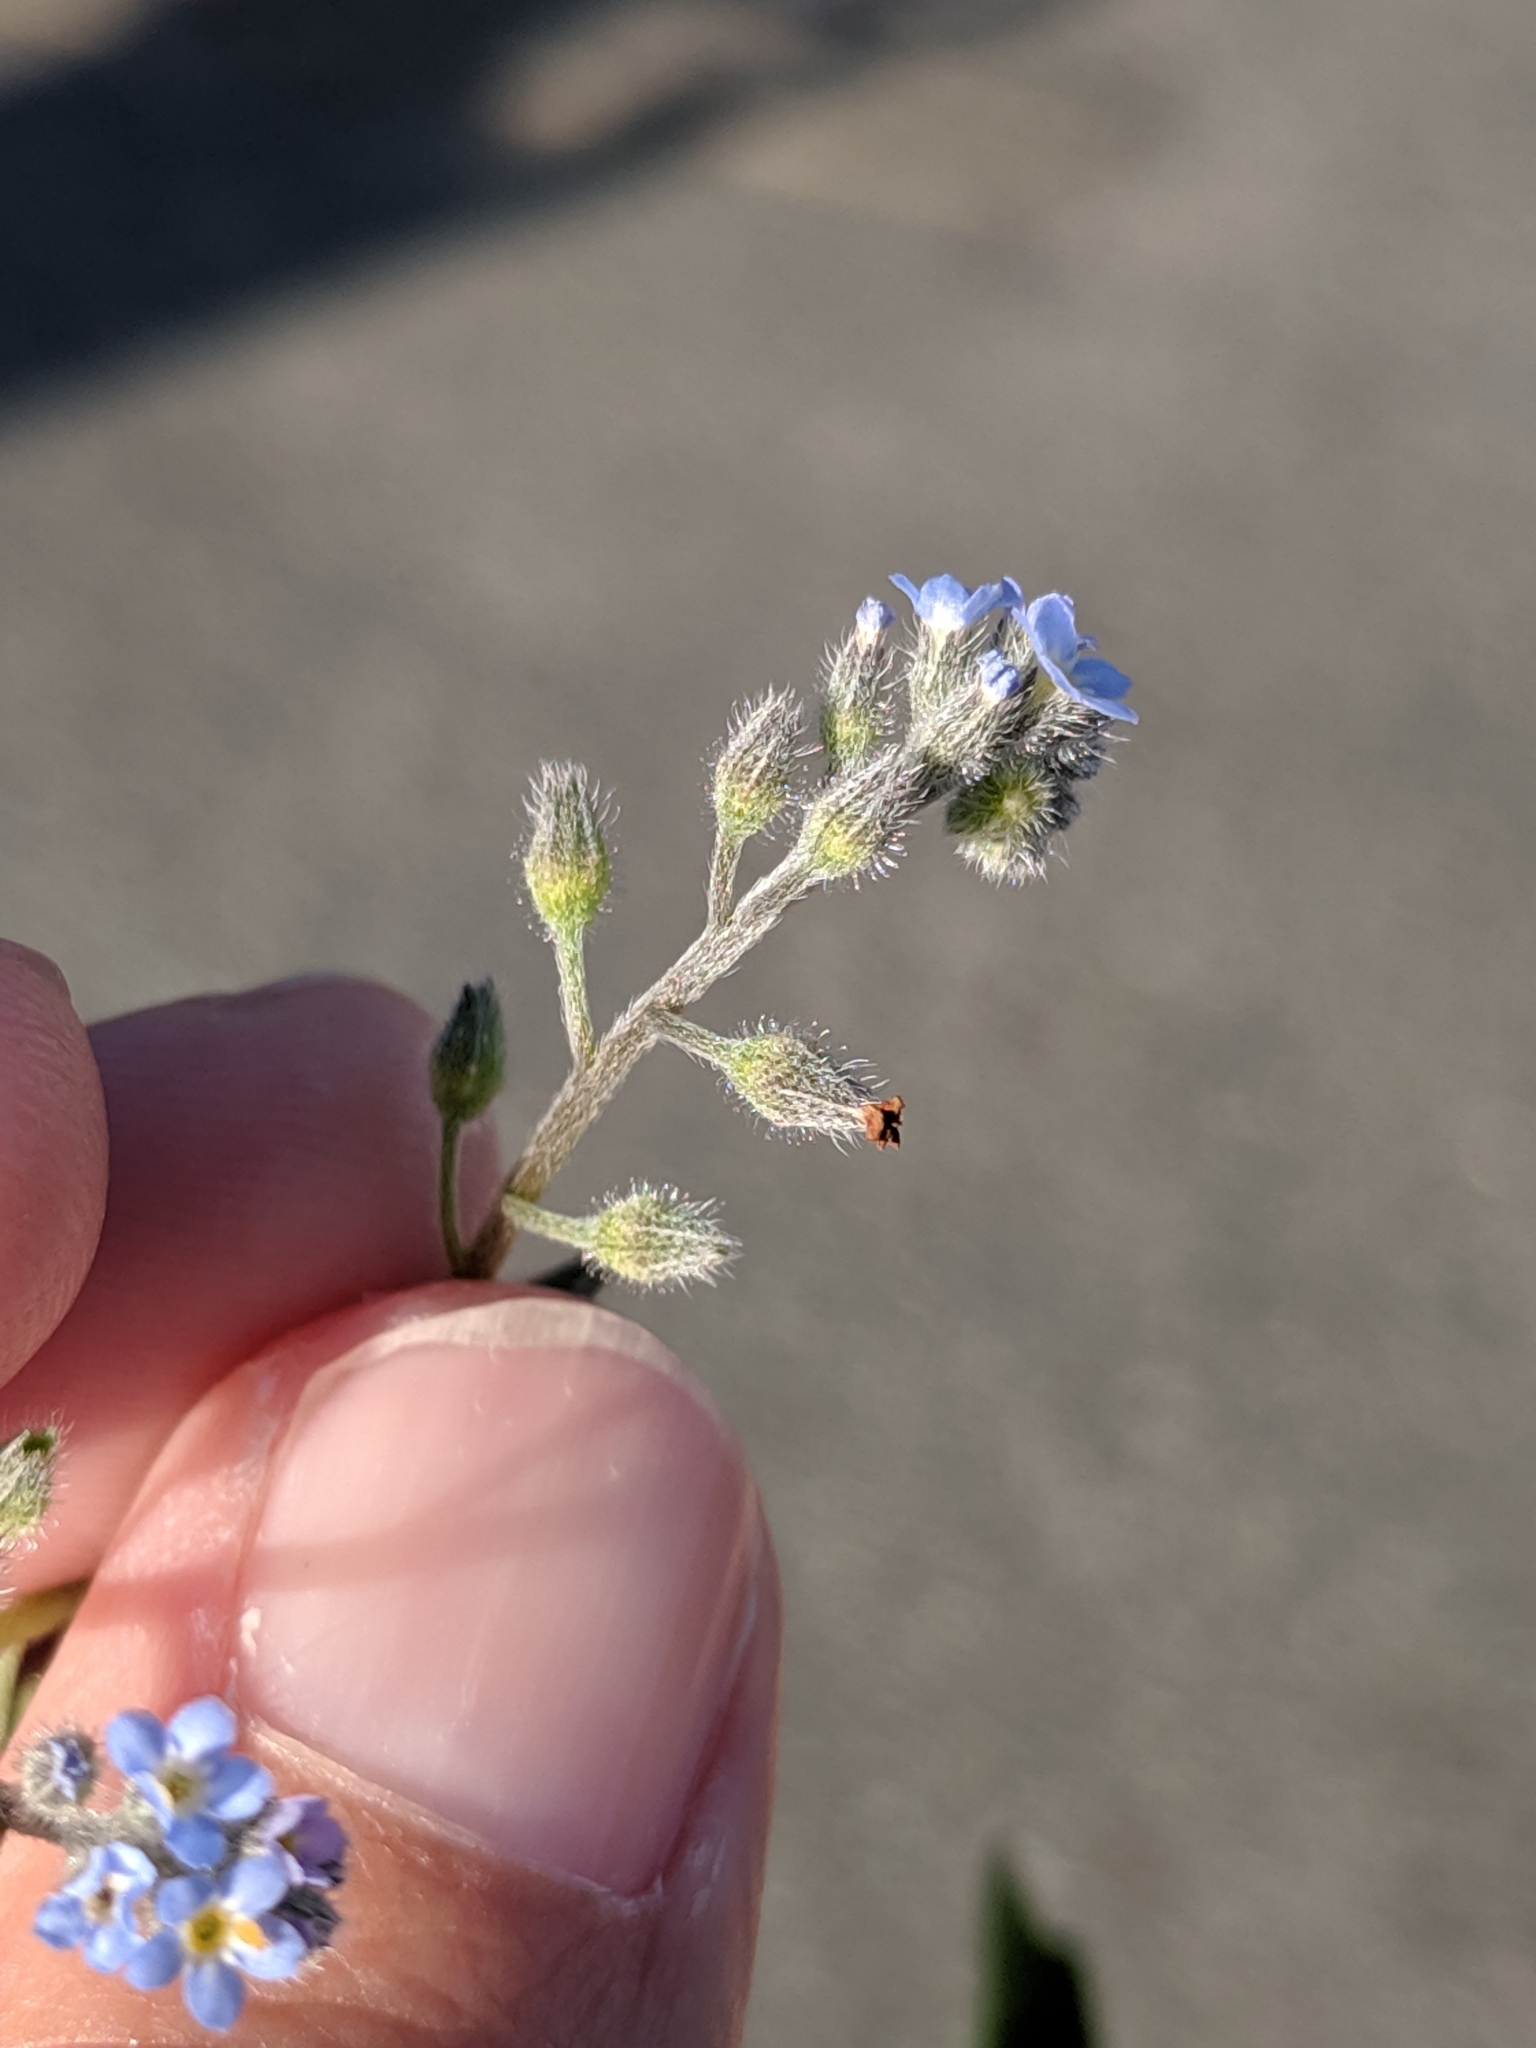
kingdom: Plantae
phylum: Tracheophyta
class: Magnoliopsida
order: Boraginales
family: Boraginaceae
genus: Myosotis
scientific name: Myosotis arvensis
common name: Field forget-me-not
